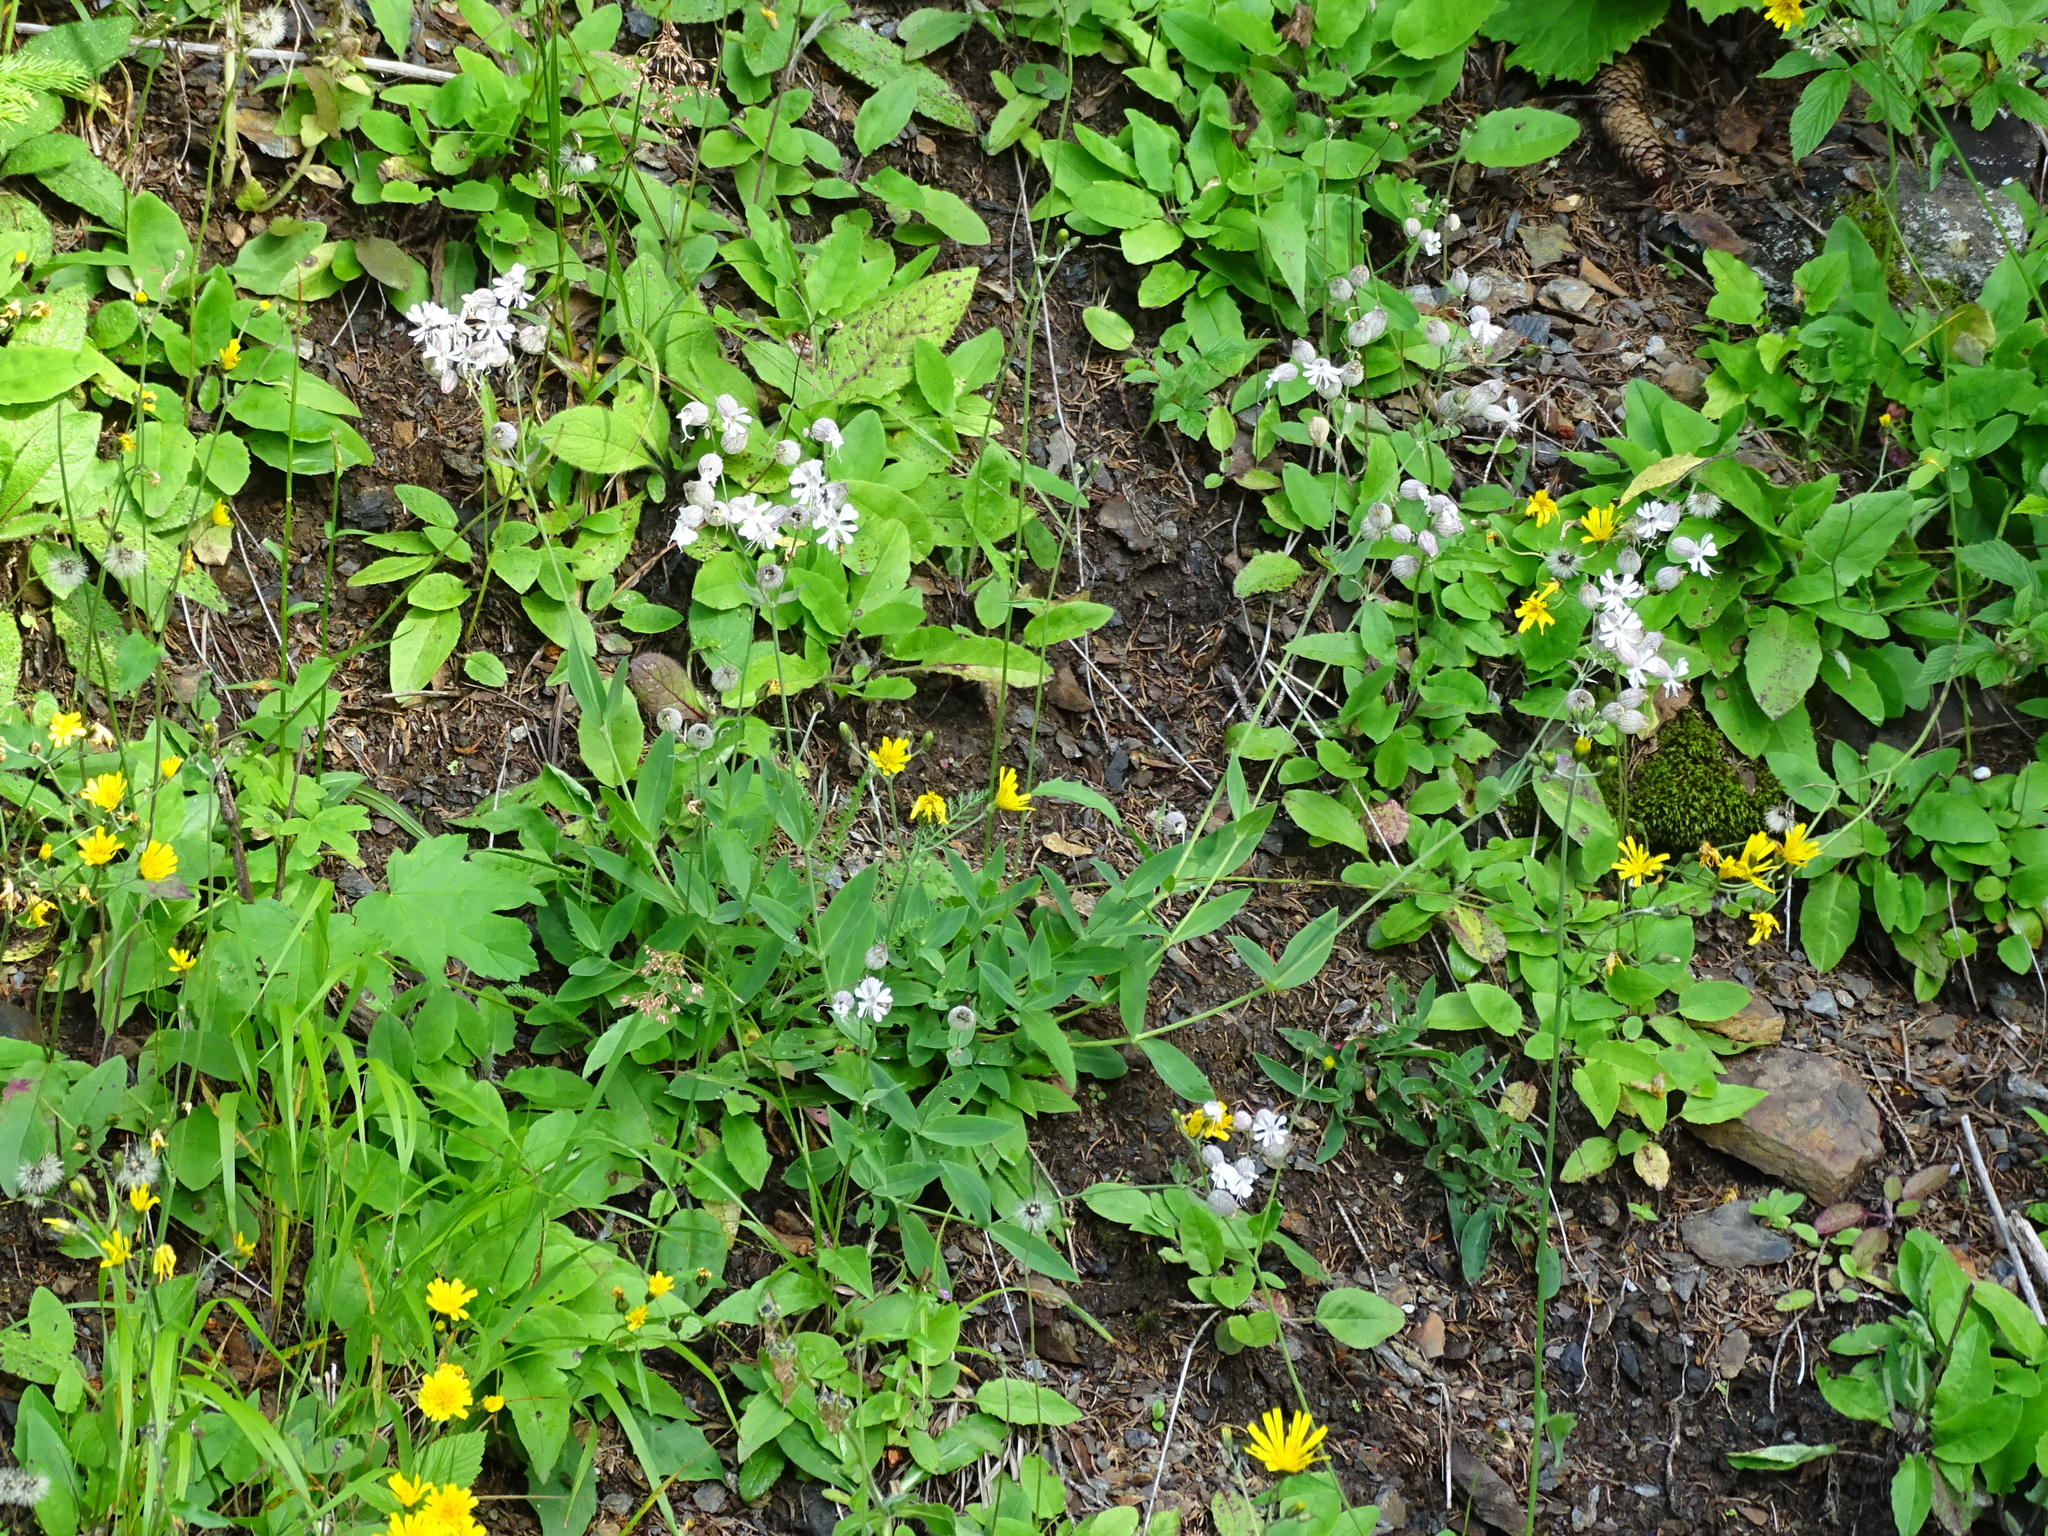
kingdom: Plantae
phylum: Tracheophyta
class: Magnoliopsida
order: Caryophyllales
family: Caryophyllaceae
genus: Silene
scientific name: Silene vulgaris
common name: Bladder campion
